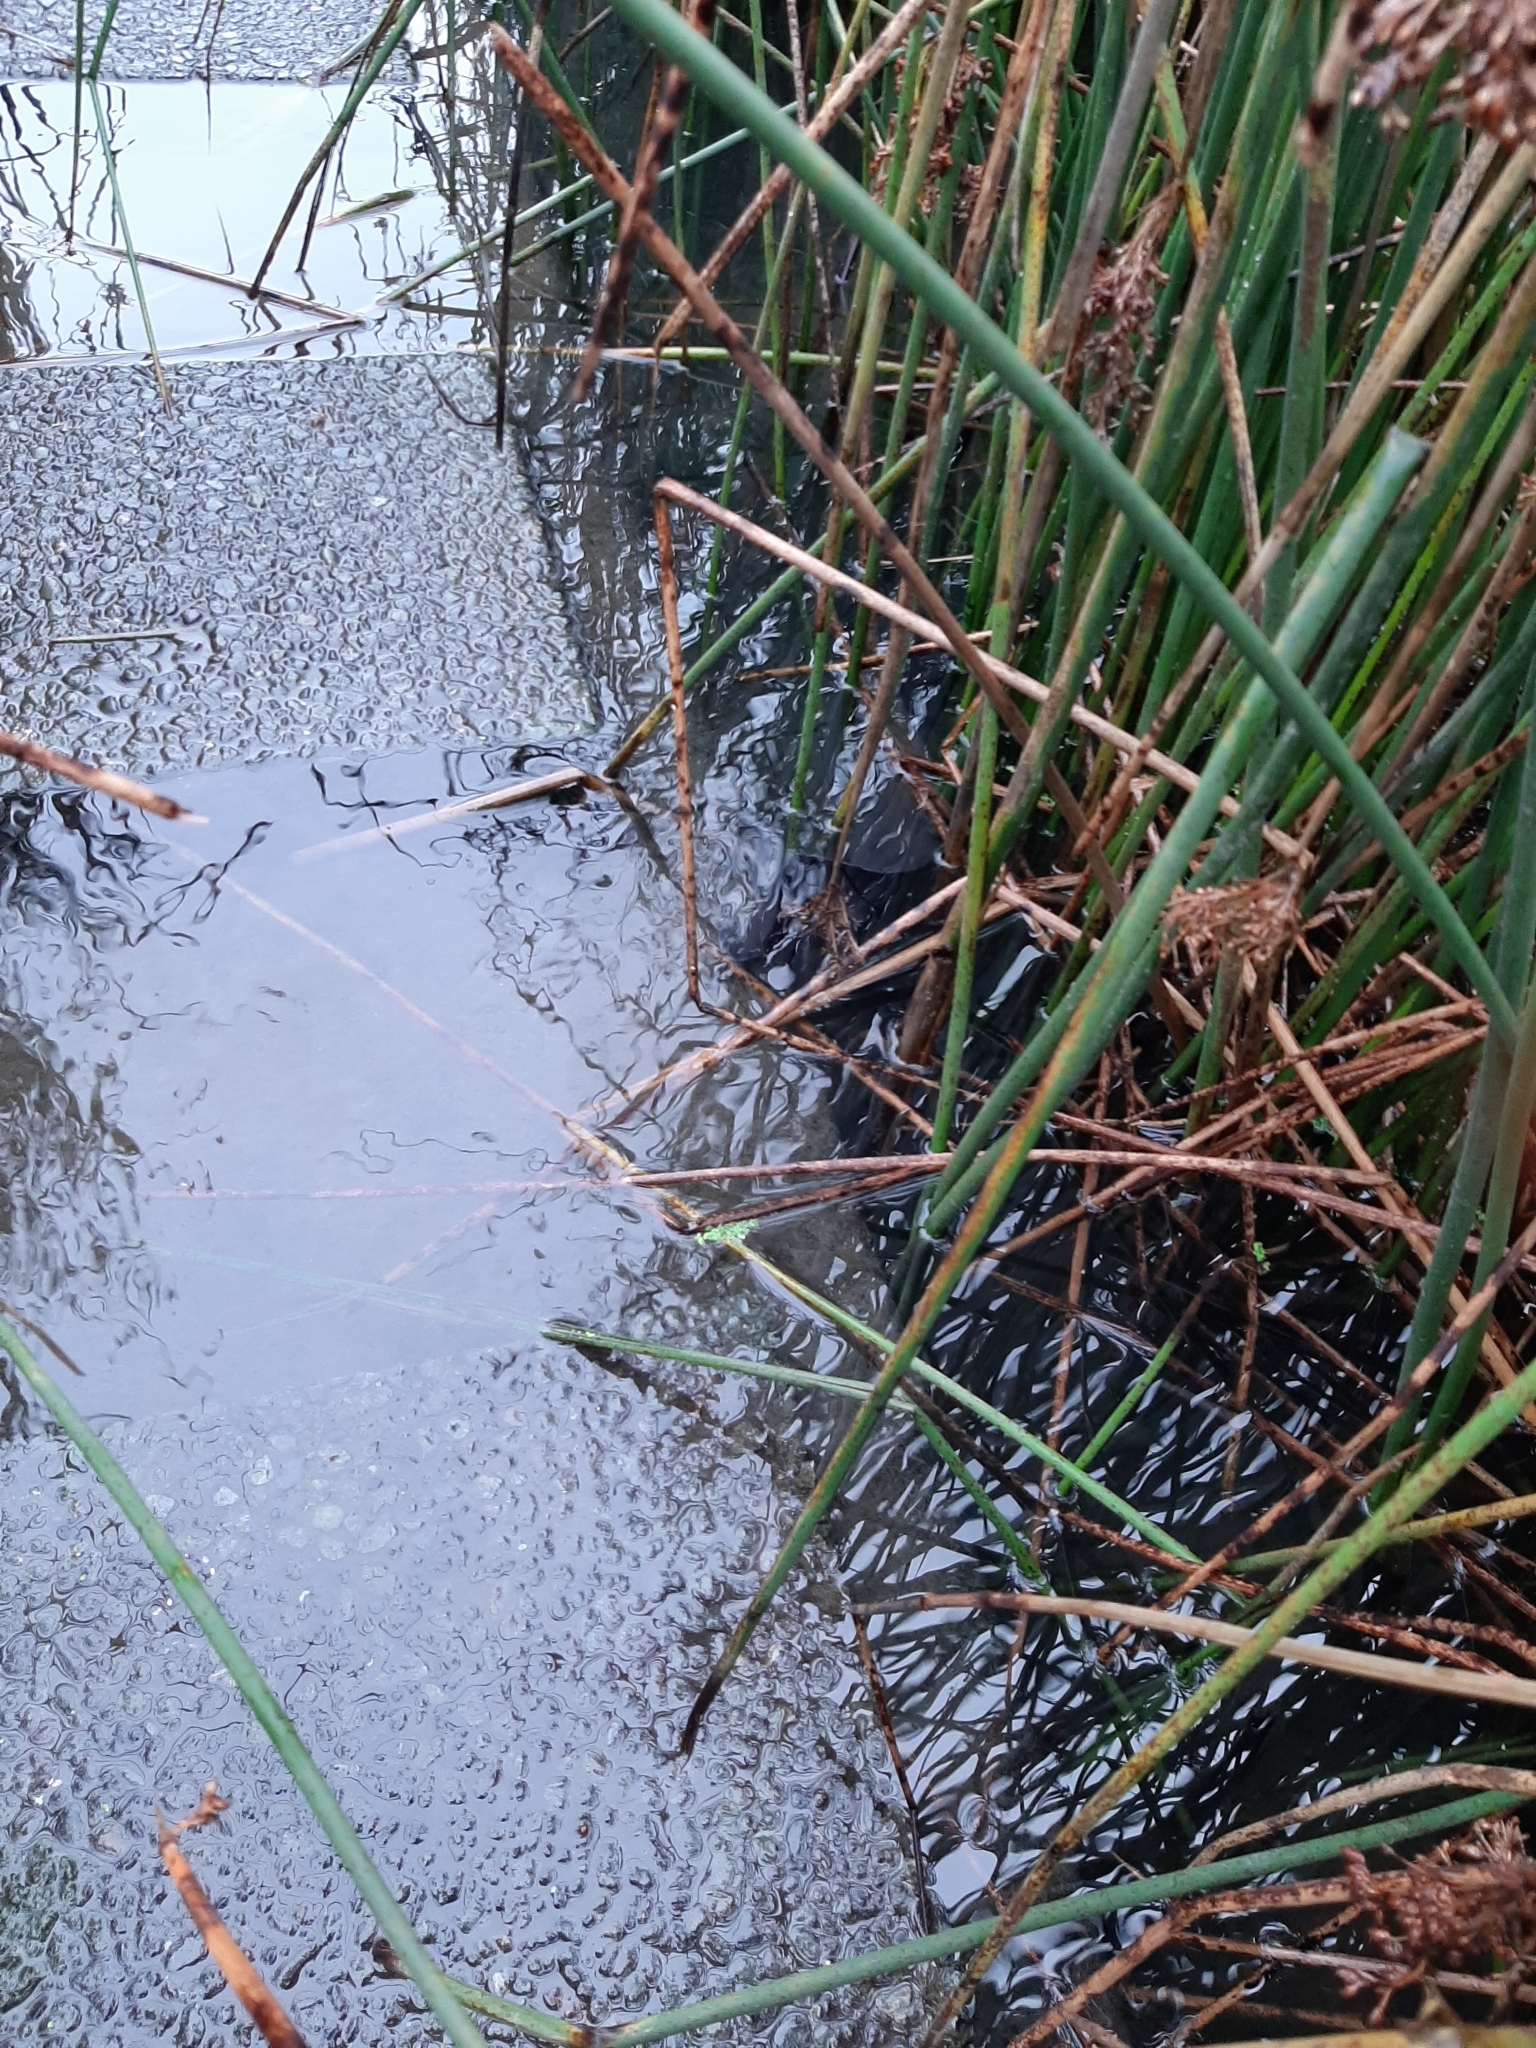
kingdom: Animalia
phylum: Chordata
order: Anguilliformes
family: Anguillidae
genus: Anguilla
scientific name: Anguilla dieffenbachii
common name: New zealand longfin eel
